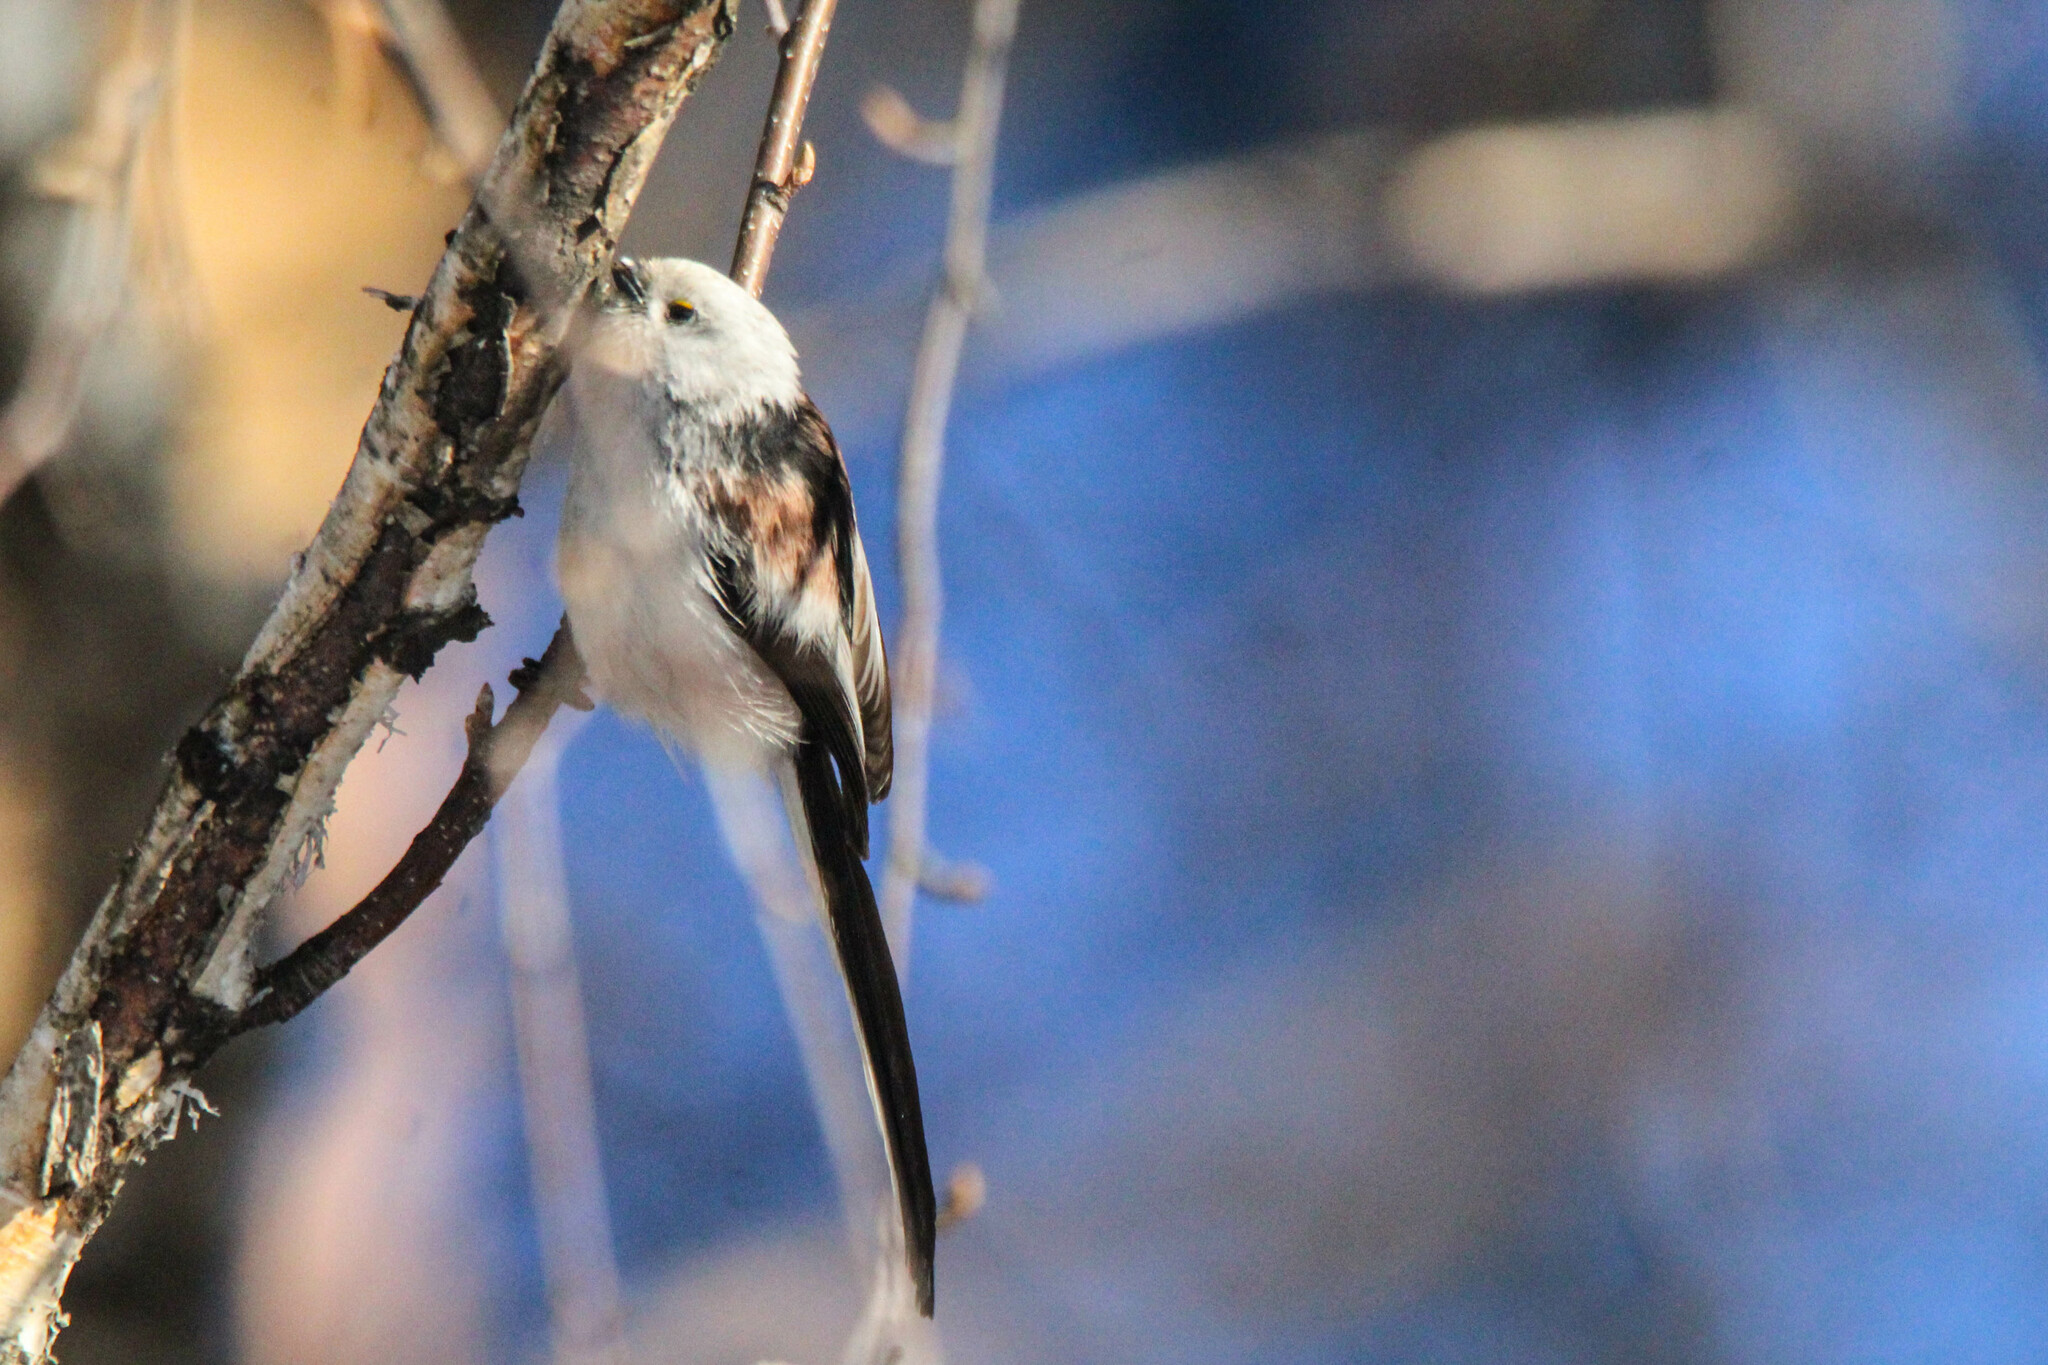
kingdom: Animalia
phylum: Chordata
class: Aves
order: Passeriformes
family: Aegithalidae
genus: Aegithalos
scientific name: Aegithalos caudatus
